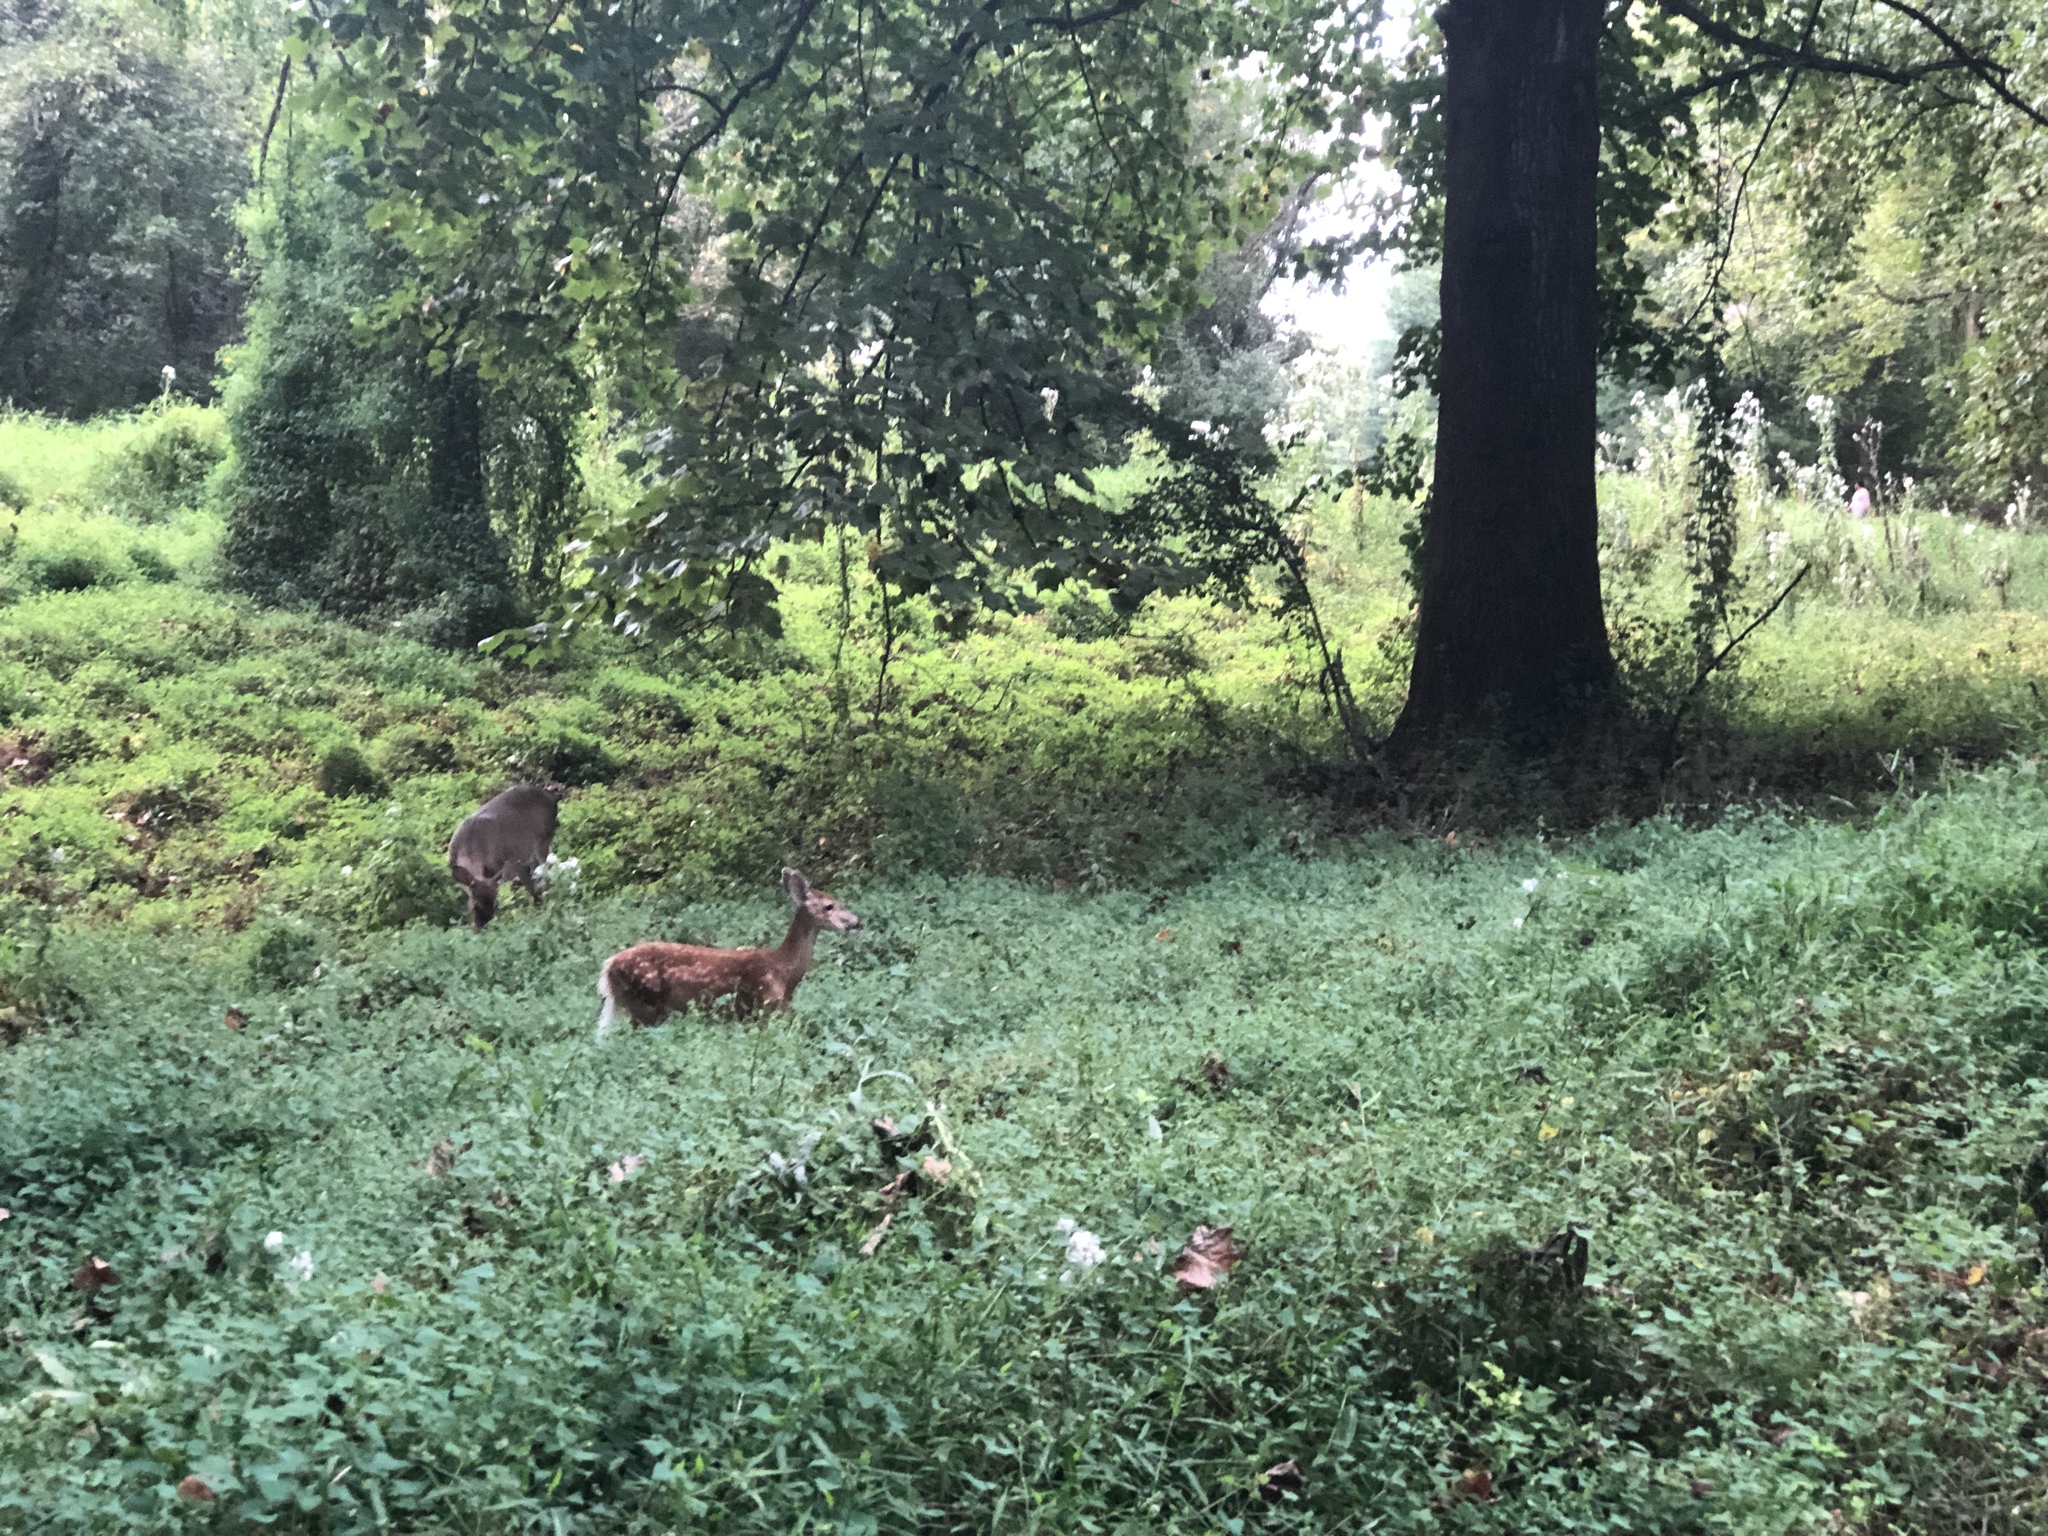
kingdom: Animalia
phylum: Chordata
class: Mammalia
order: Artiodactyla
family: Cervidae
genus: Odocoileus
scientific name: Odocoileus virginianus
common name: White-tailed deer
